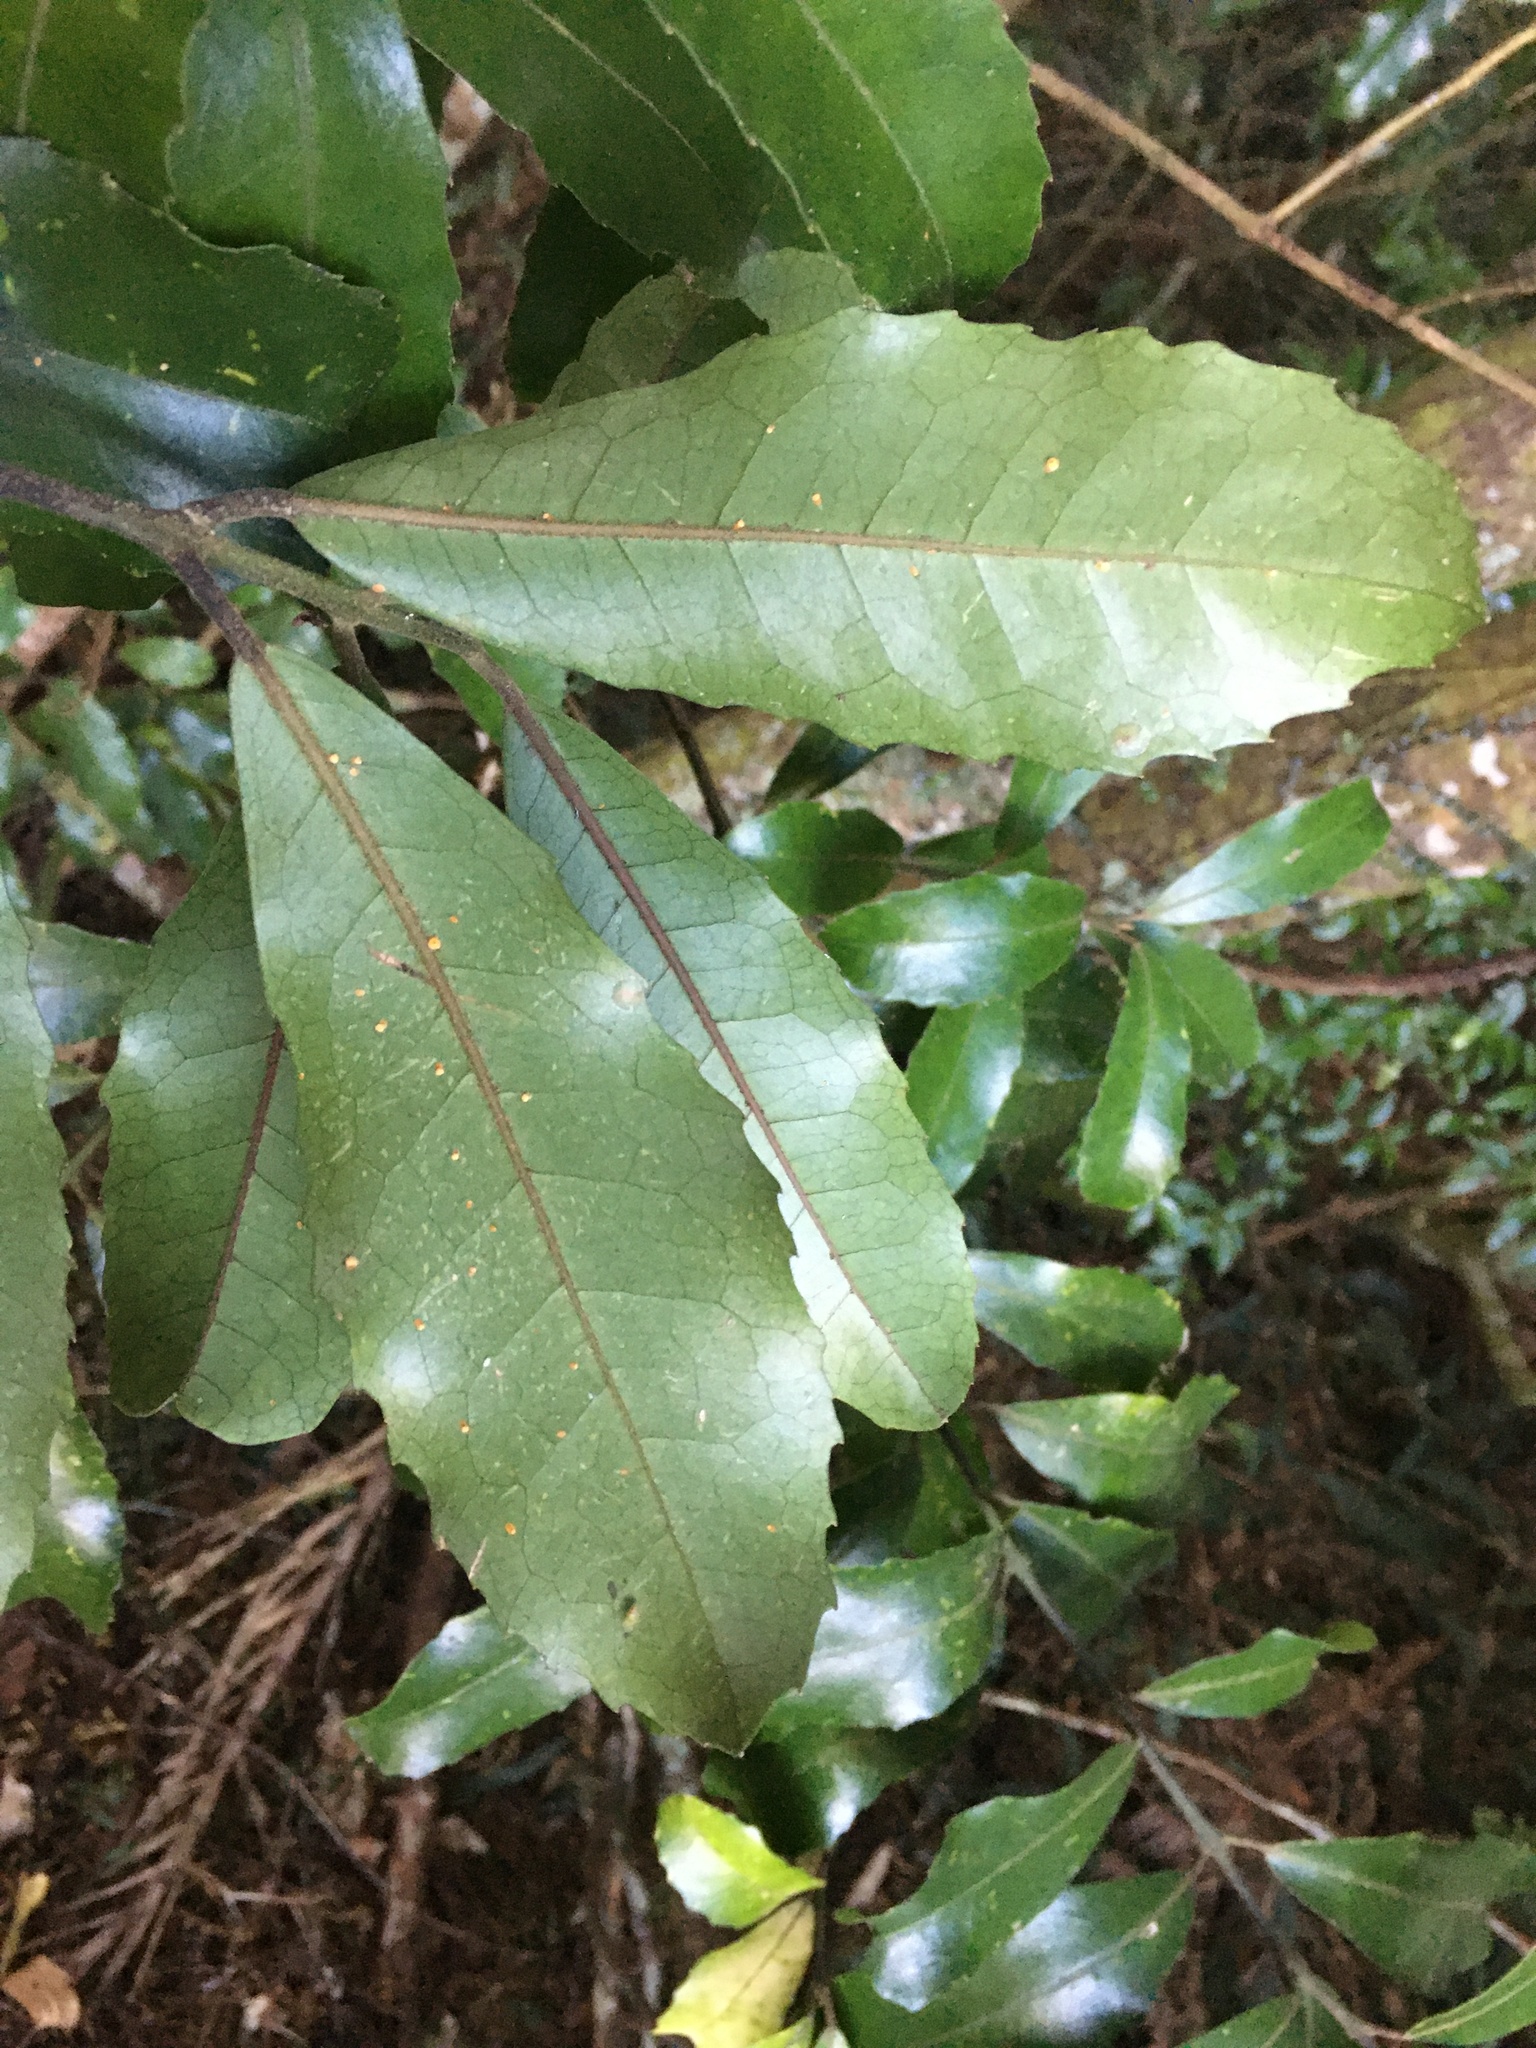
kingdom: Plantae
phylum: Tracheophyta
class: Magnoliopsida
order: Laurales
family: Monimiaceae
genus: Hedycarya
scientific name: Hedycarya arborea
